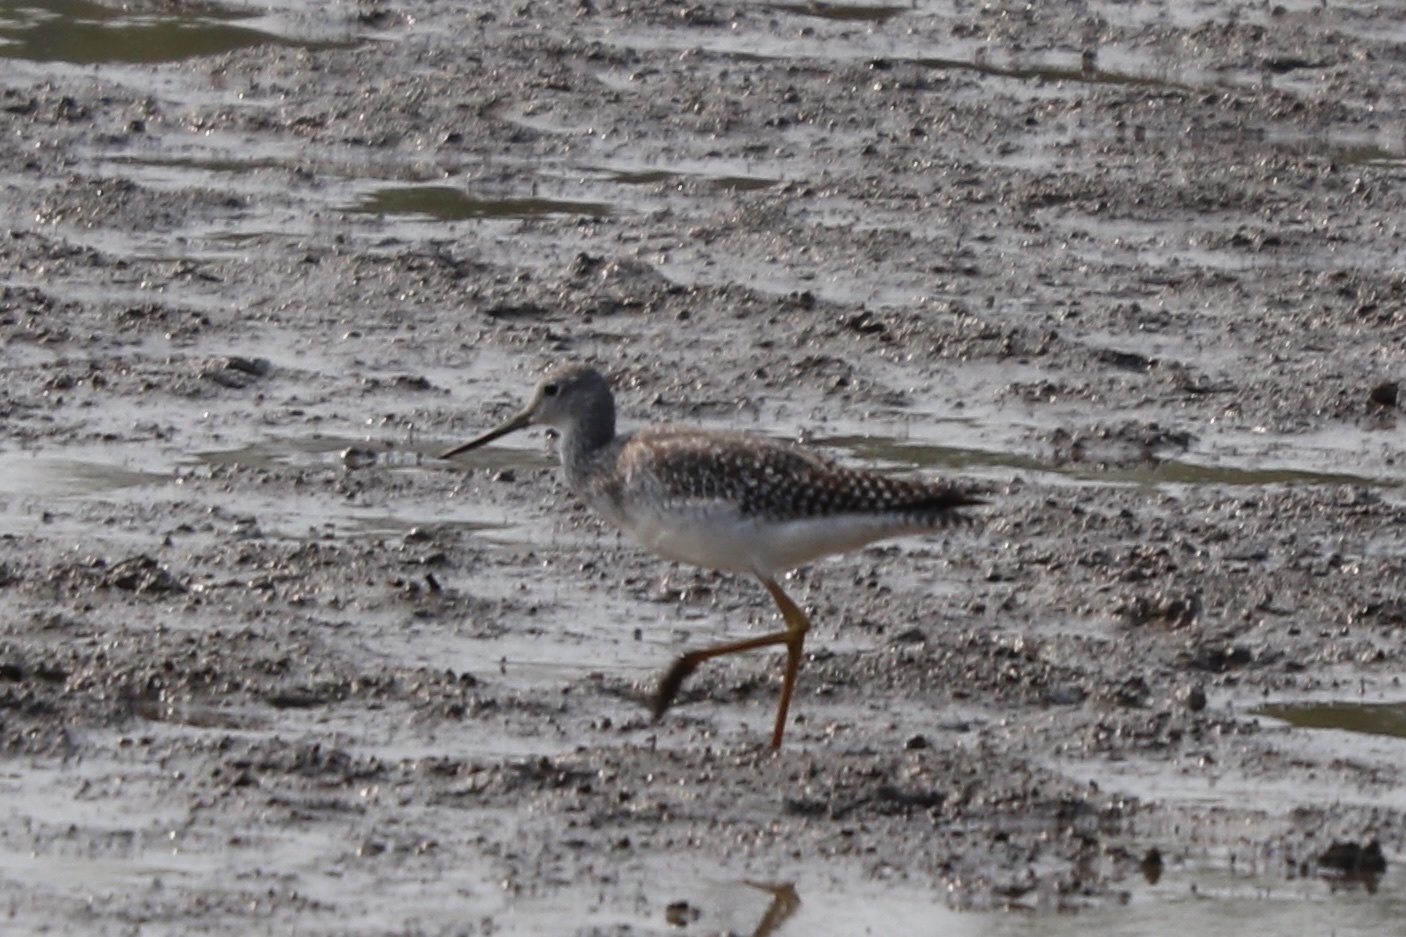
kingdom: Animalia
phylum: Chordata
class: Aves
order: Charadriiformes
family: Scolopacidae
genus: Tringa
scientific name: Tringa melanoleuca
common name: Greater yellowlegs
